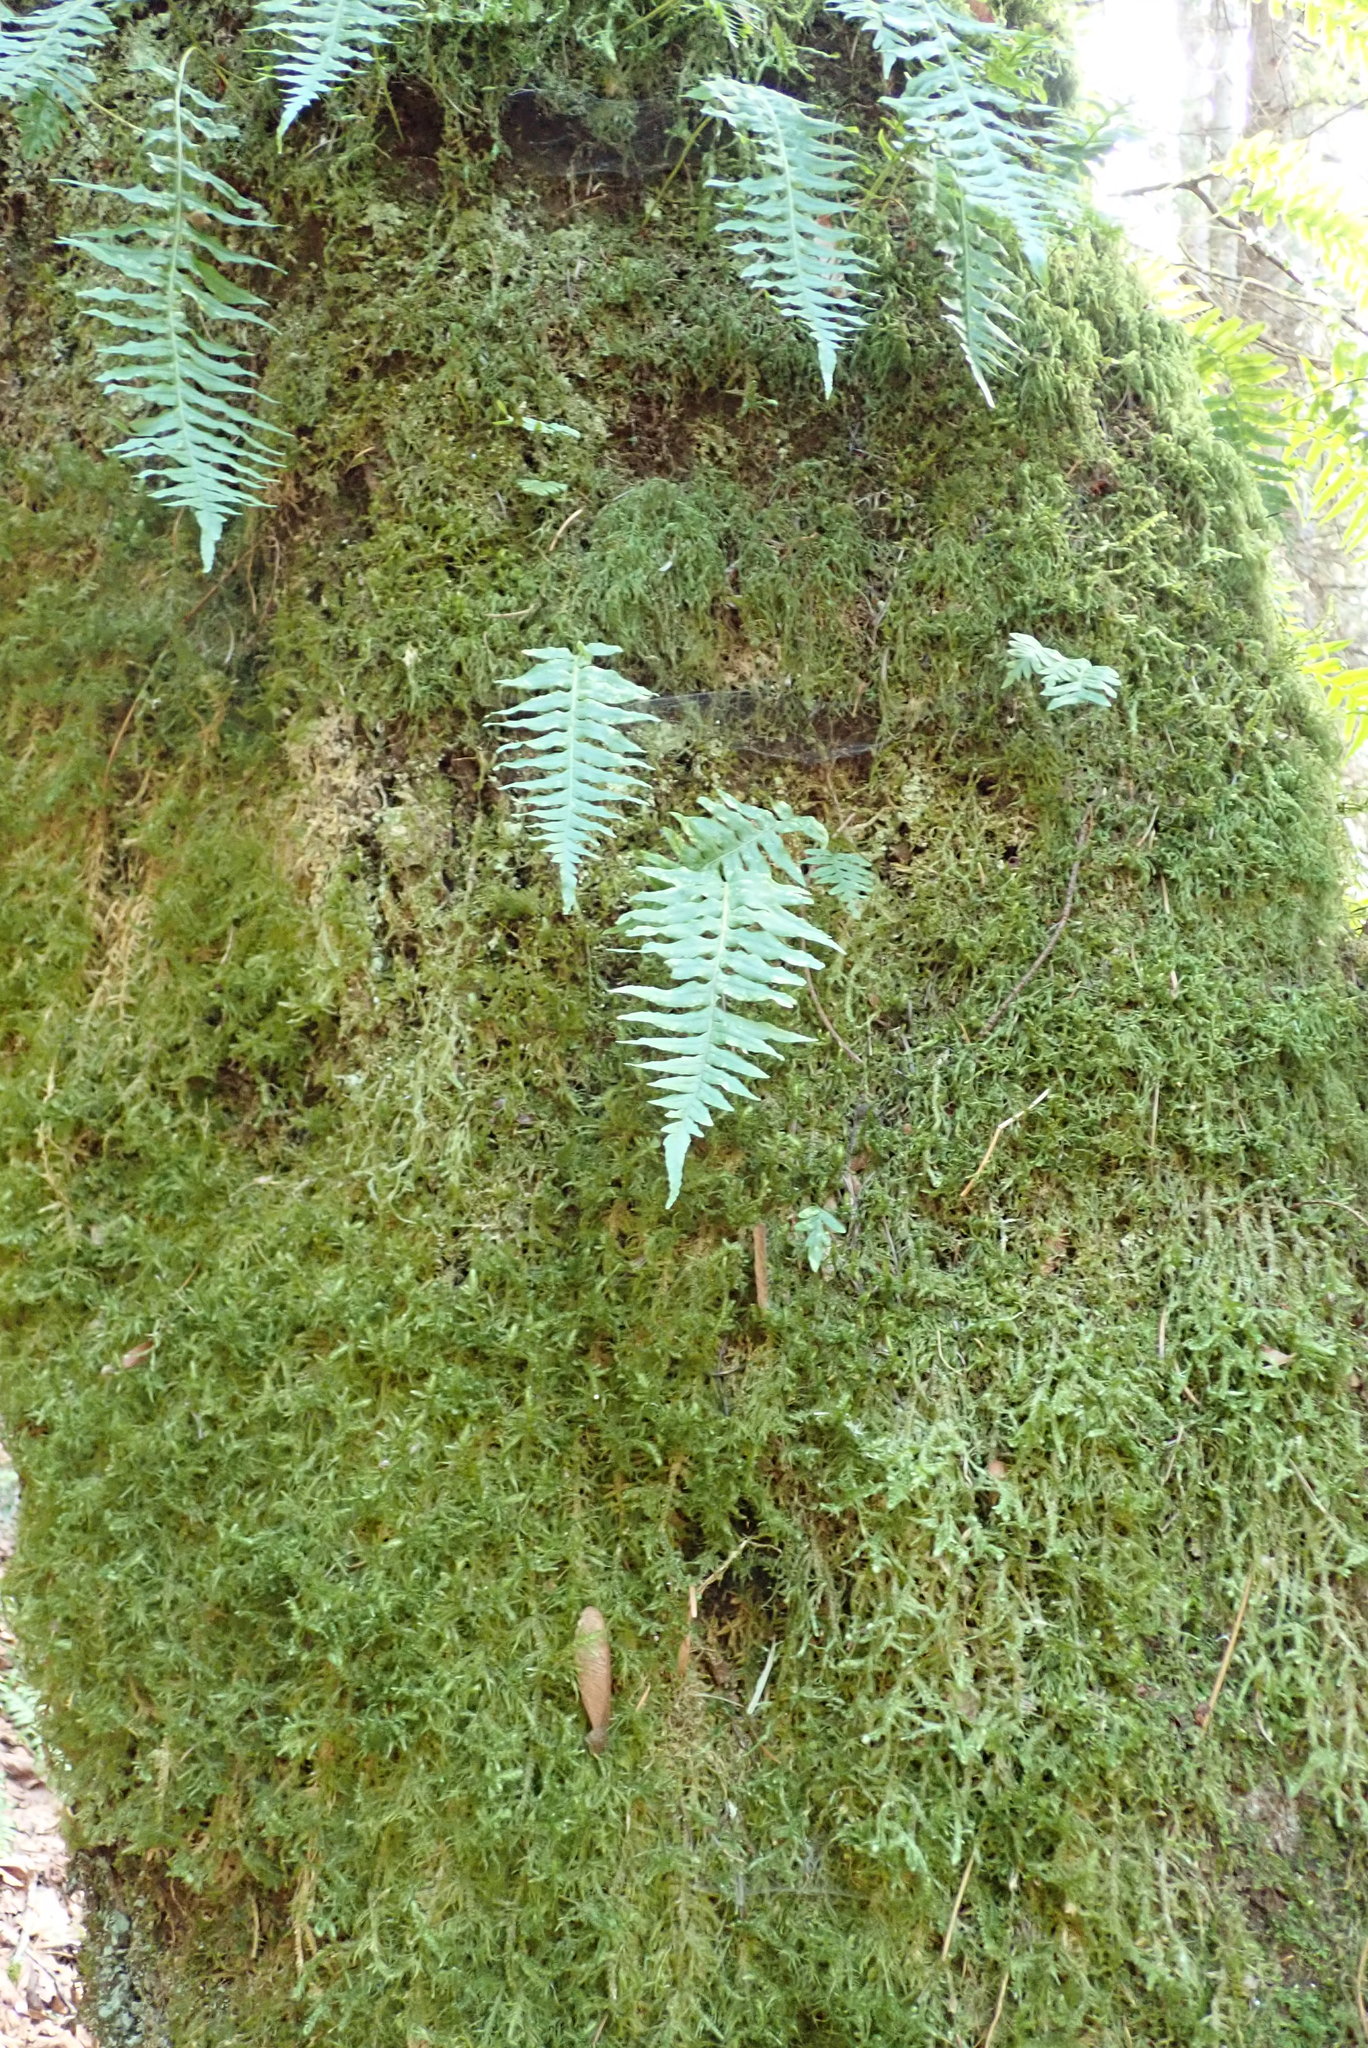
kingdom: Plantae
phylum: Tracheophyta
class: Polypodiopsida
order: Polypodiales
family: Polypodiaceae
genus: Polypodium
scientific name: Polypodium glycyrrhiza
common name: Licorice fern
